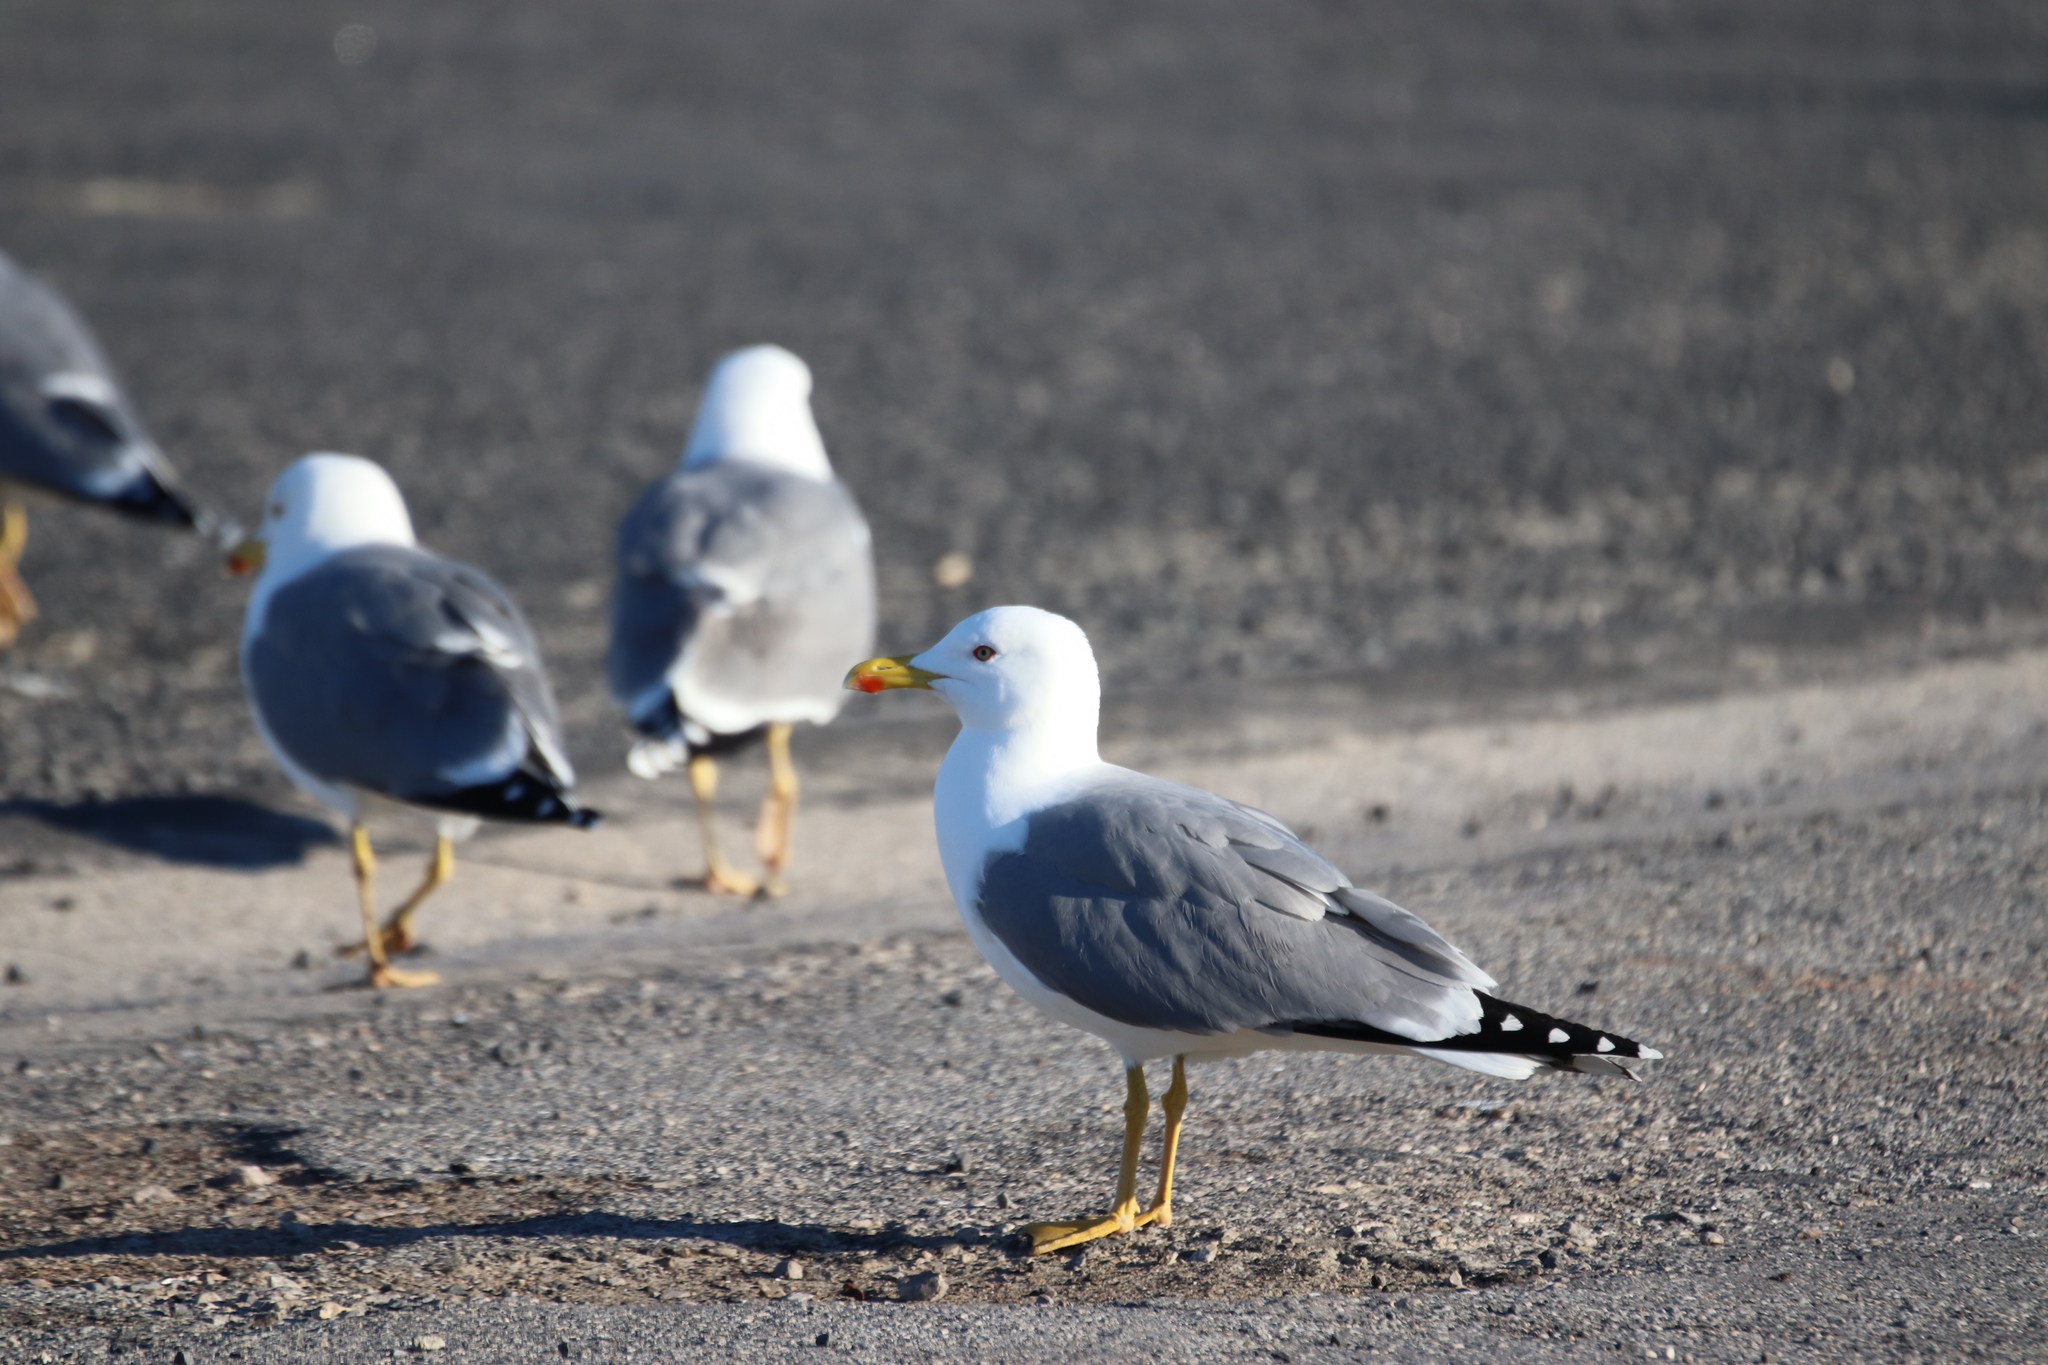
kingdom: Animalia
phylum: Chordata
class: Aves
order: Charadriiformes
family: Laridae
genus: Larus
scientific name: Larus michahellis
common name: Yellow-legged gull
